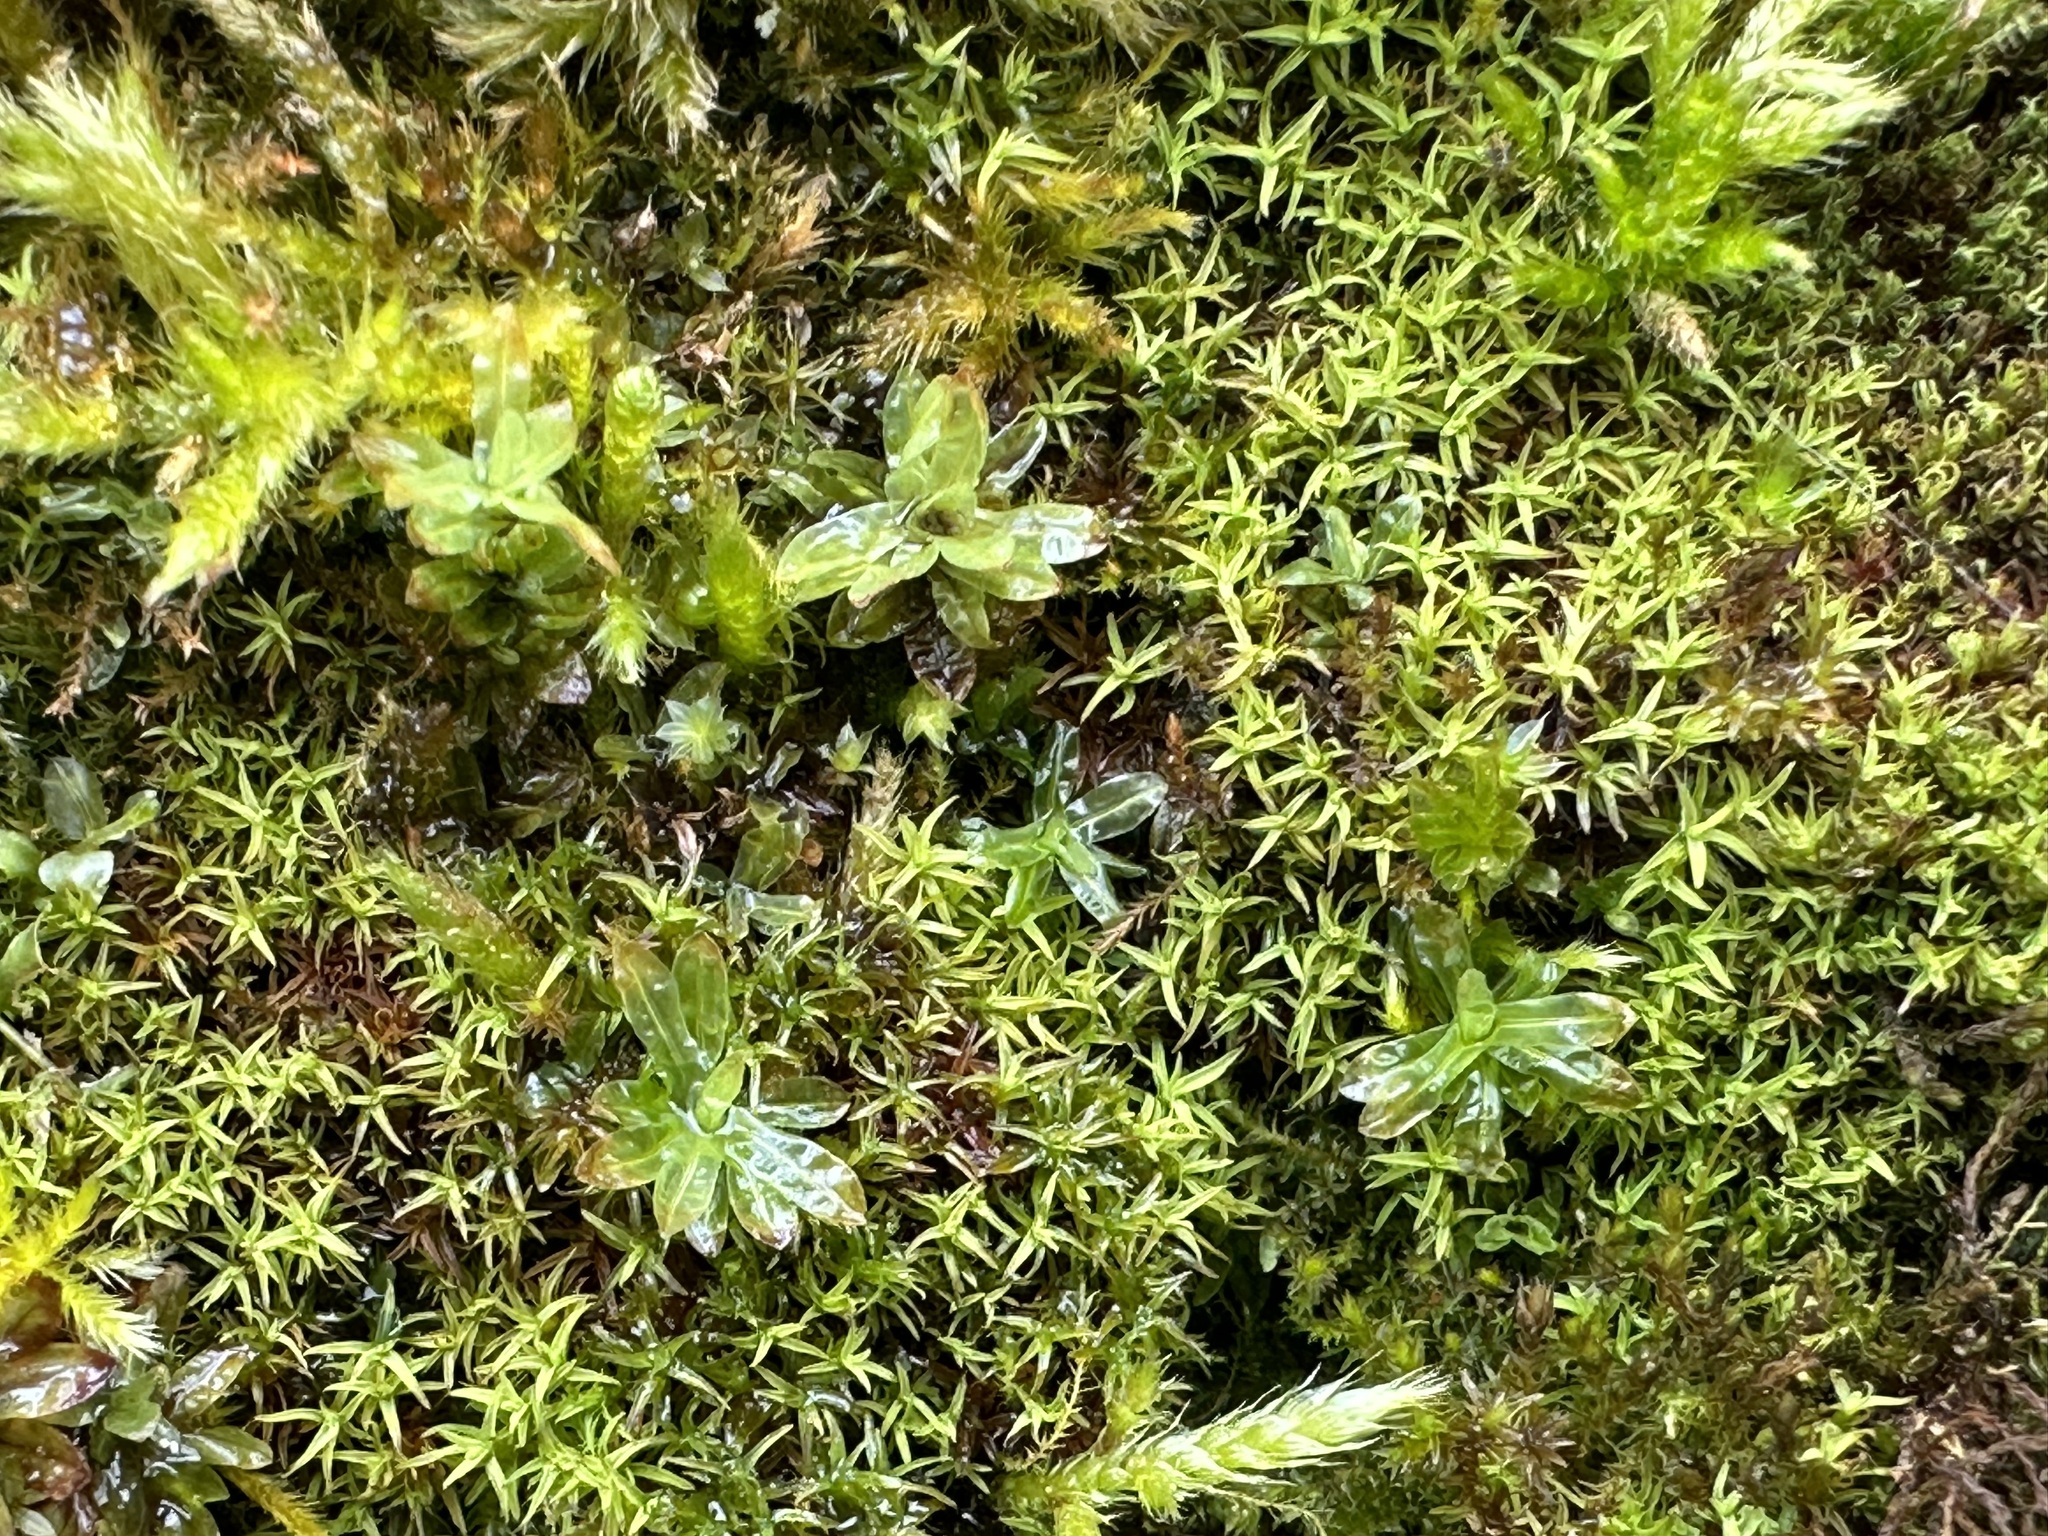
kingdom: Plantae
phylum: Bryophyta
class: Bryopsida
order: Encalyptales
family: Encalyptaceae
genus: Encalypta
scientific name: Encalypta streptocarpa
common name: Spiral extinguisher-moss
